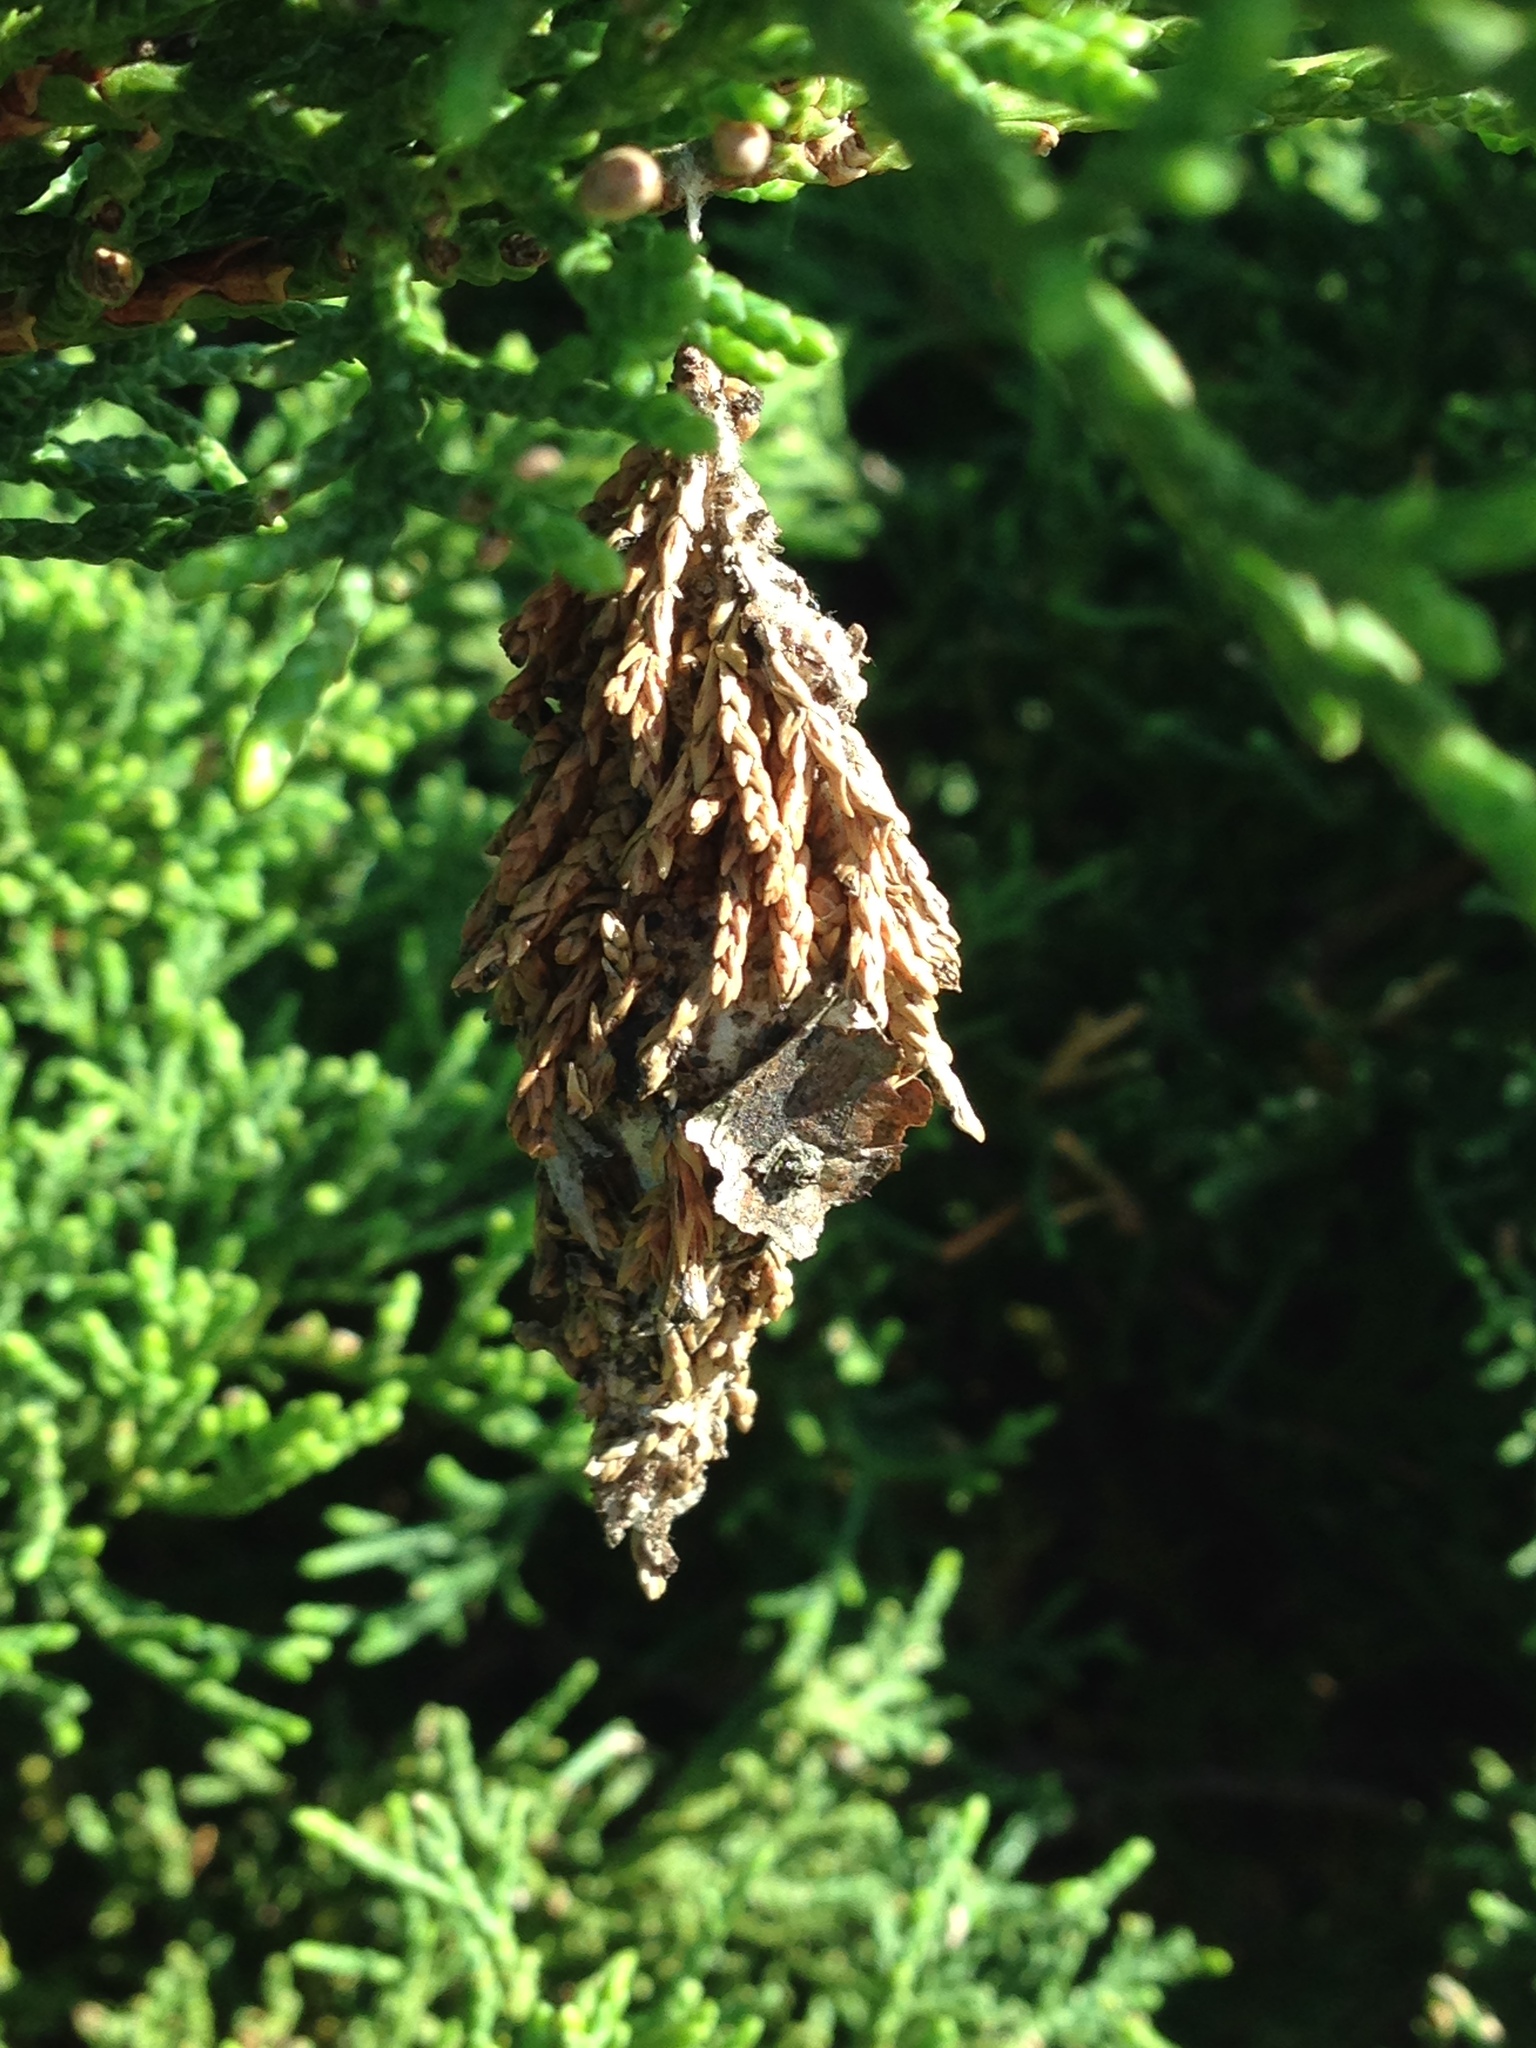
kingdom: Animalia
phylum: Arthropoda
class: Insecta
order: Lepidoptera
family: Psychidae
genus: Thyridopteryx
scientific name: Thyridopteryx ephemeraeformis
